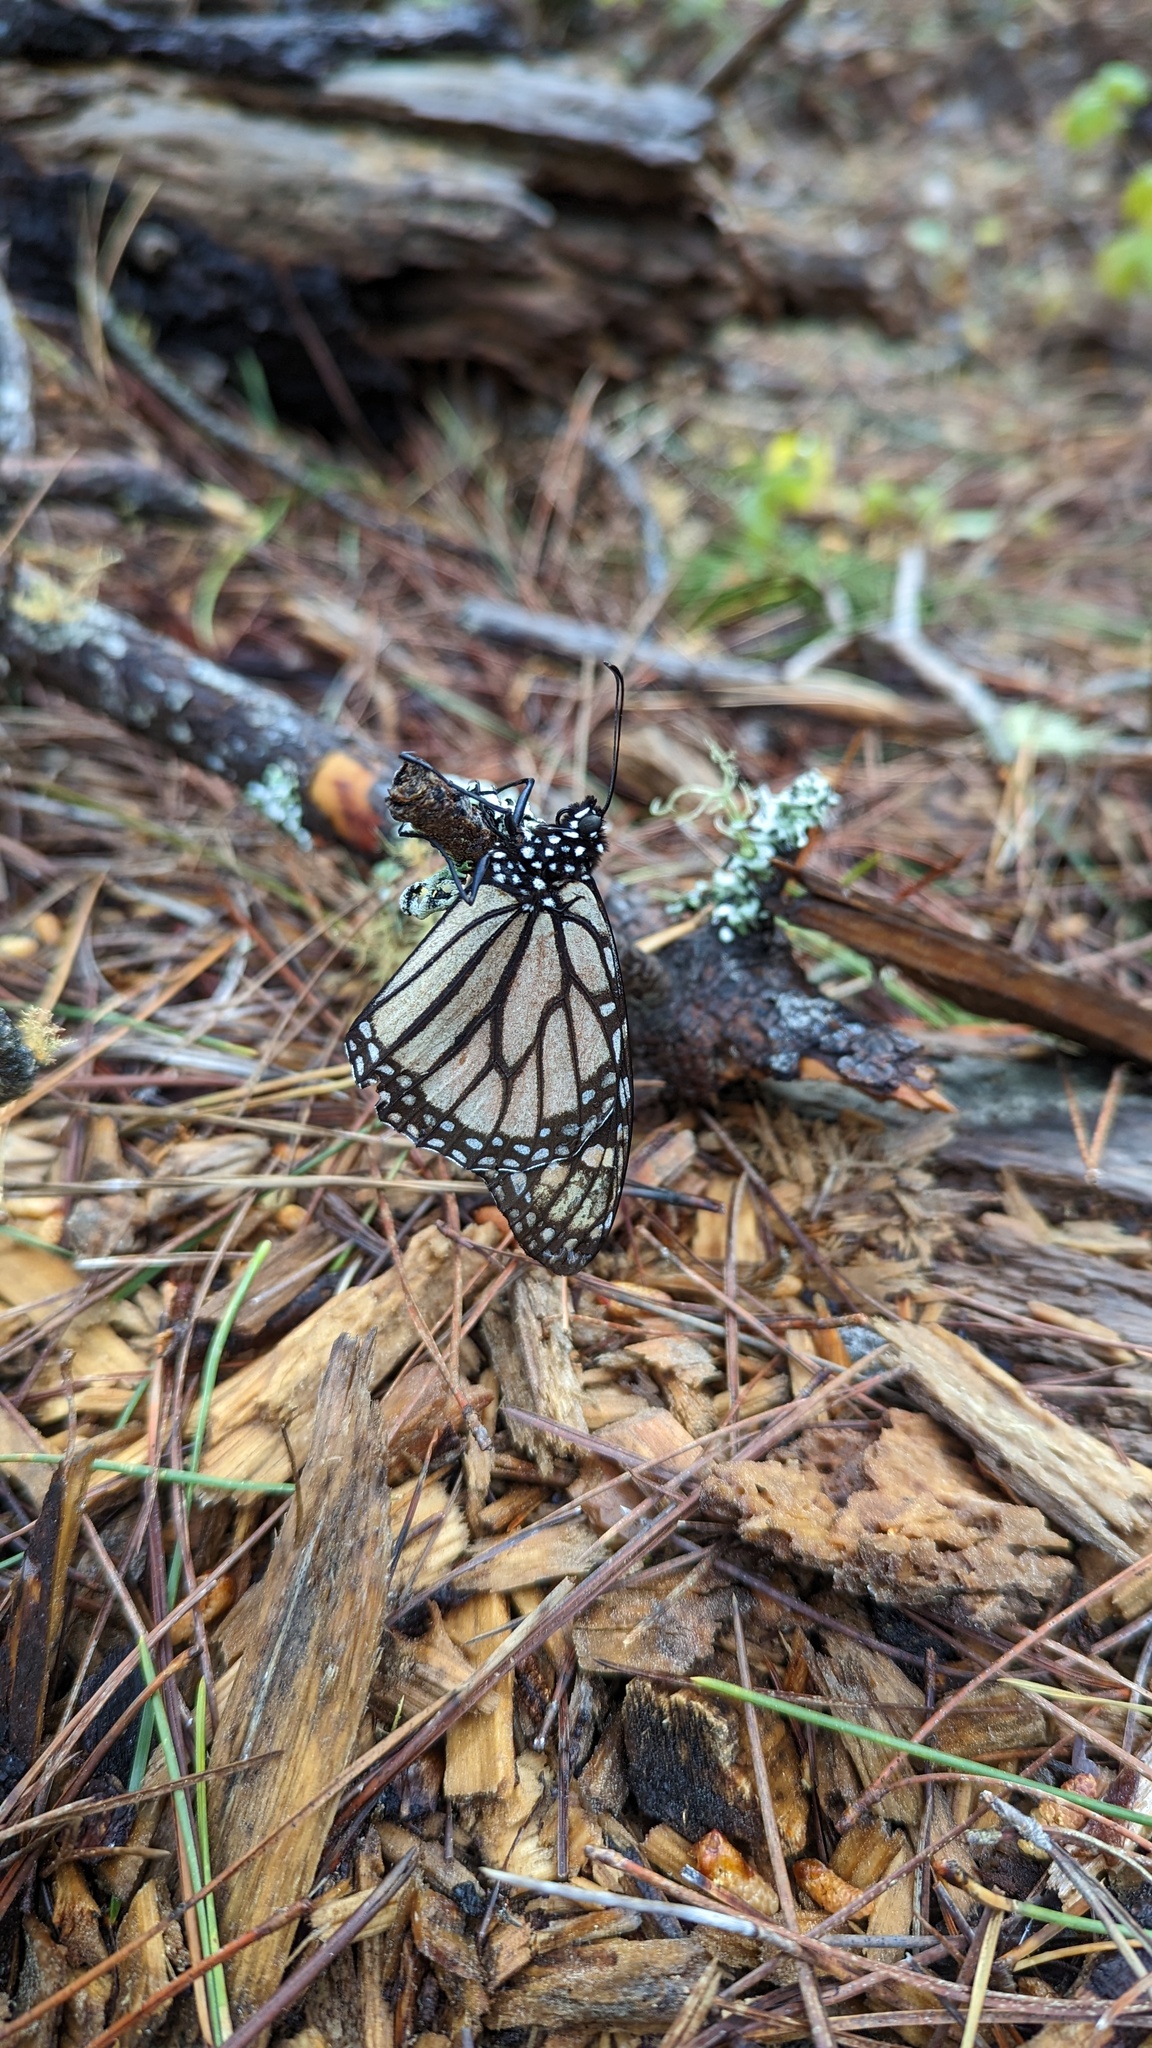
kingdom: Animalia
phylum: Arthropoda
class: Insecta
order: Lepidoptera
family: Nymphalidae
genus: Danaus
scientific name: Danaus plexippus
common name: Monarch
